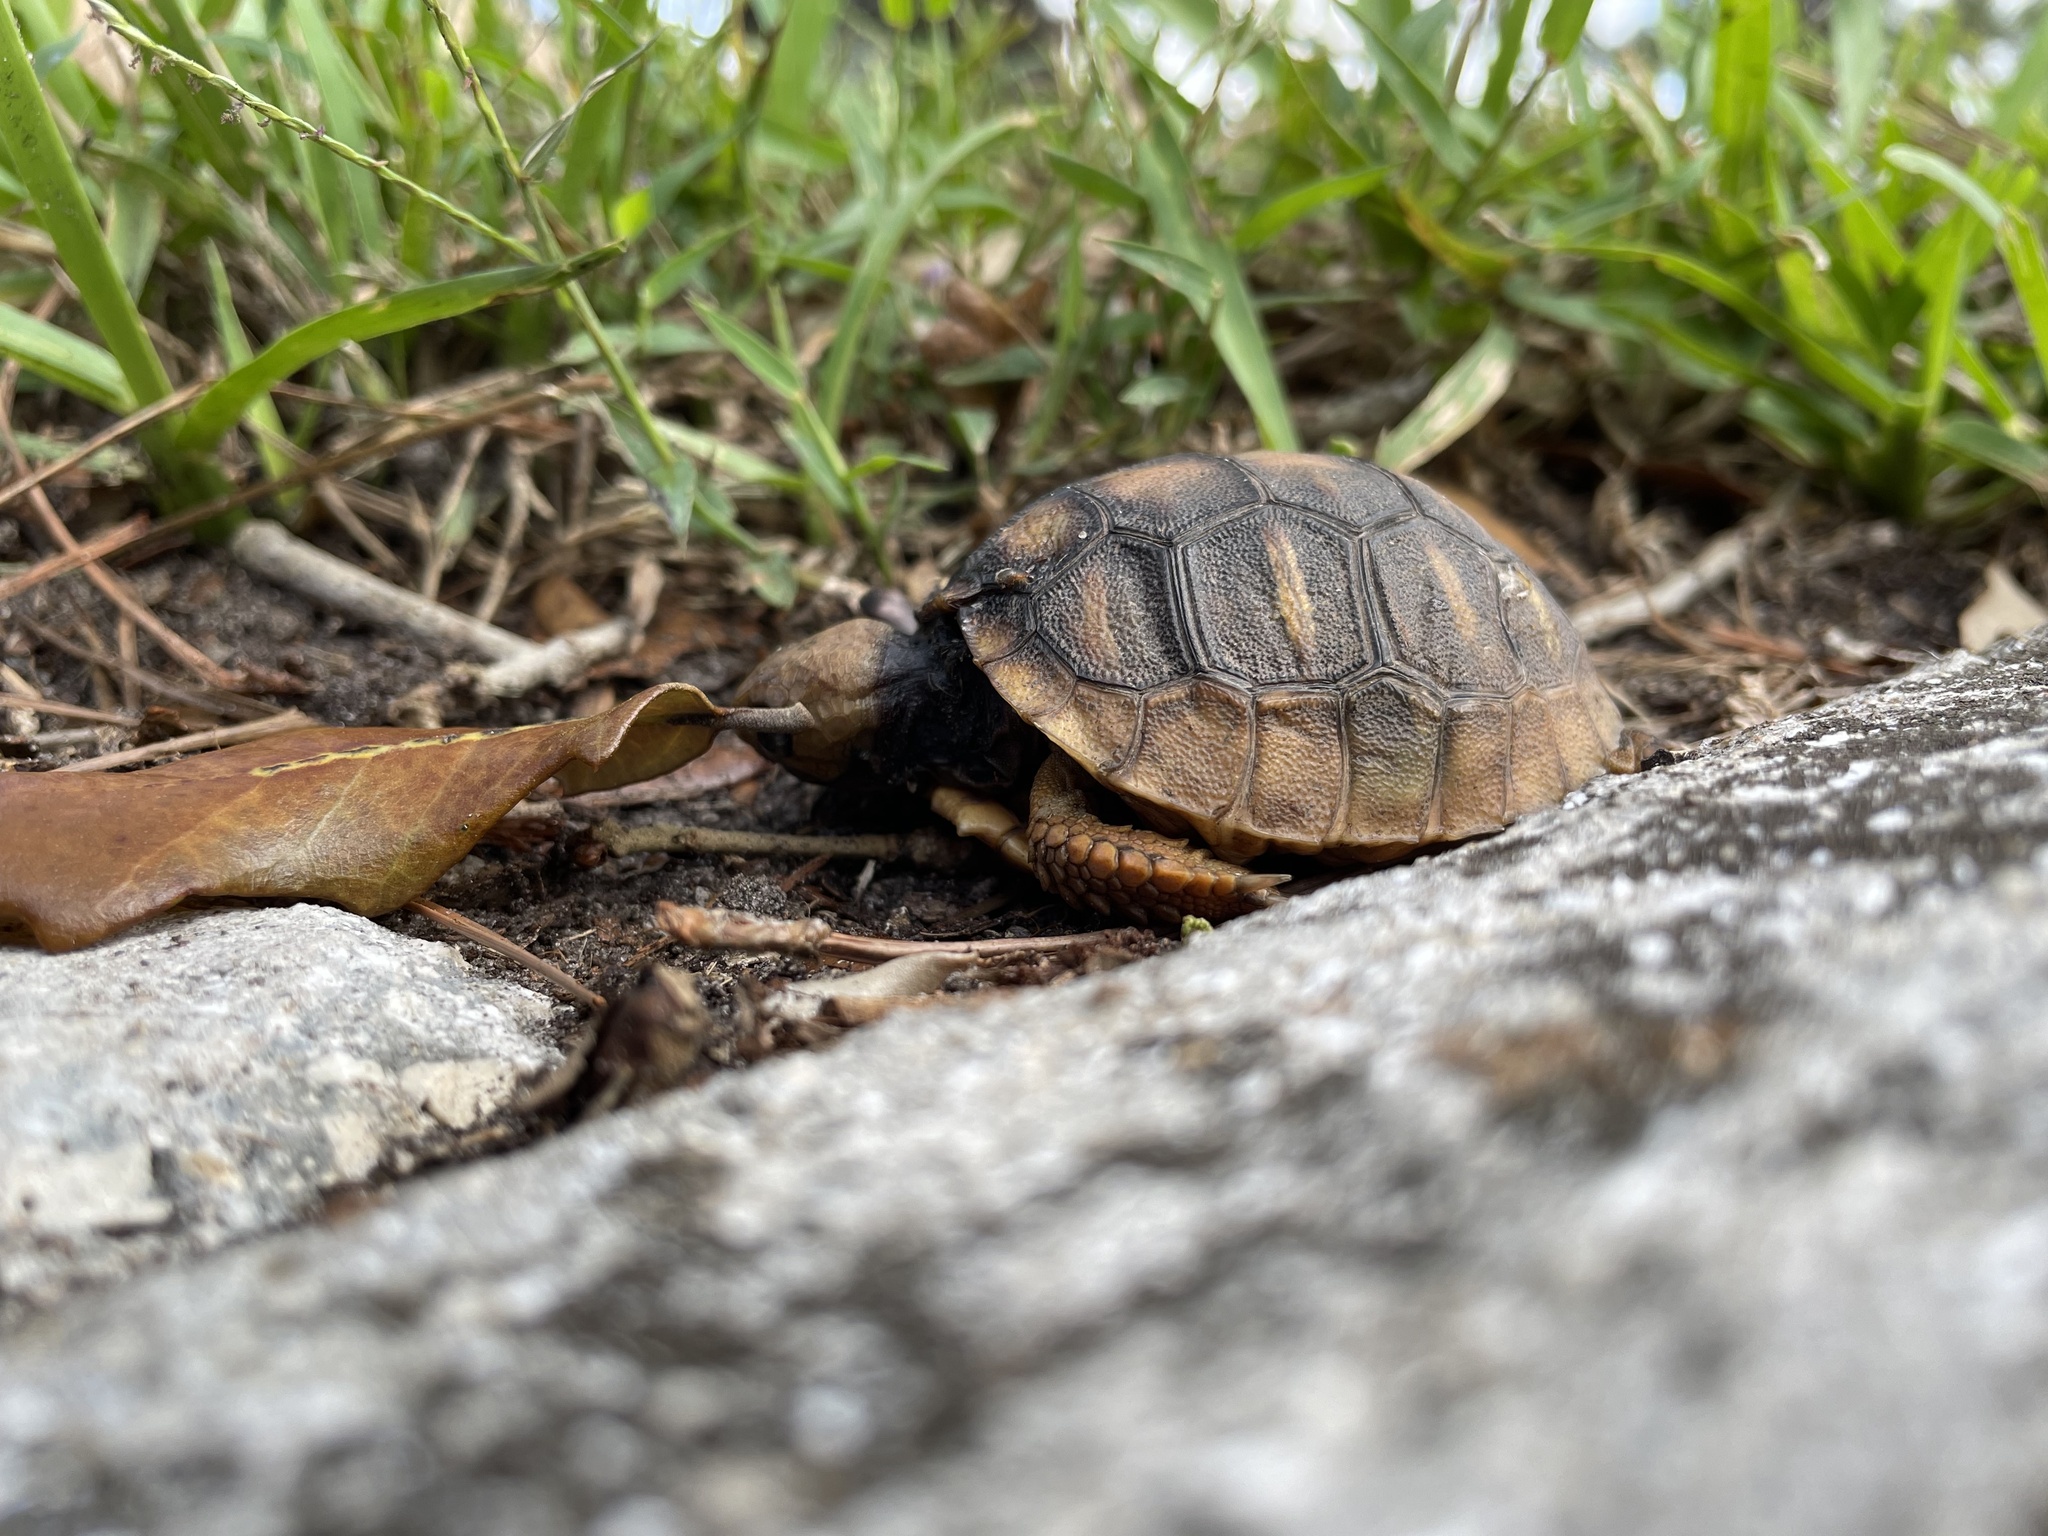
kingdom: Animalia
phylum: Chordata
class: Testudines
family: Testudinidae
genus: Gopherus
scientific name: Gopherus polyphemus
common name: Florida gopher tortoise
